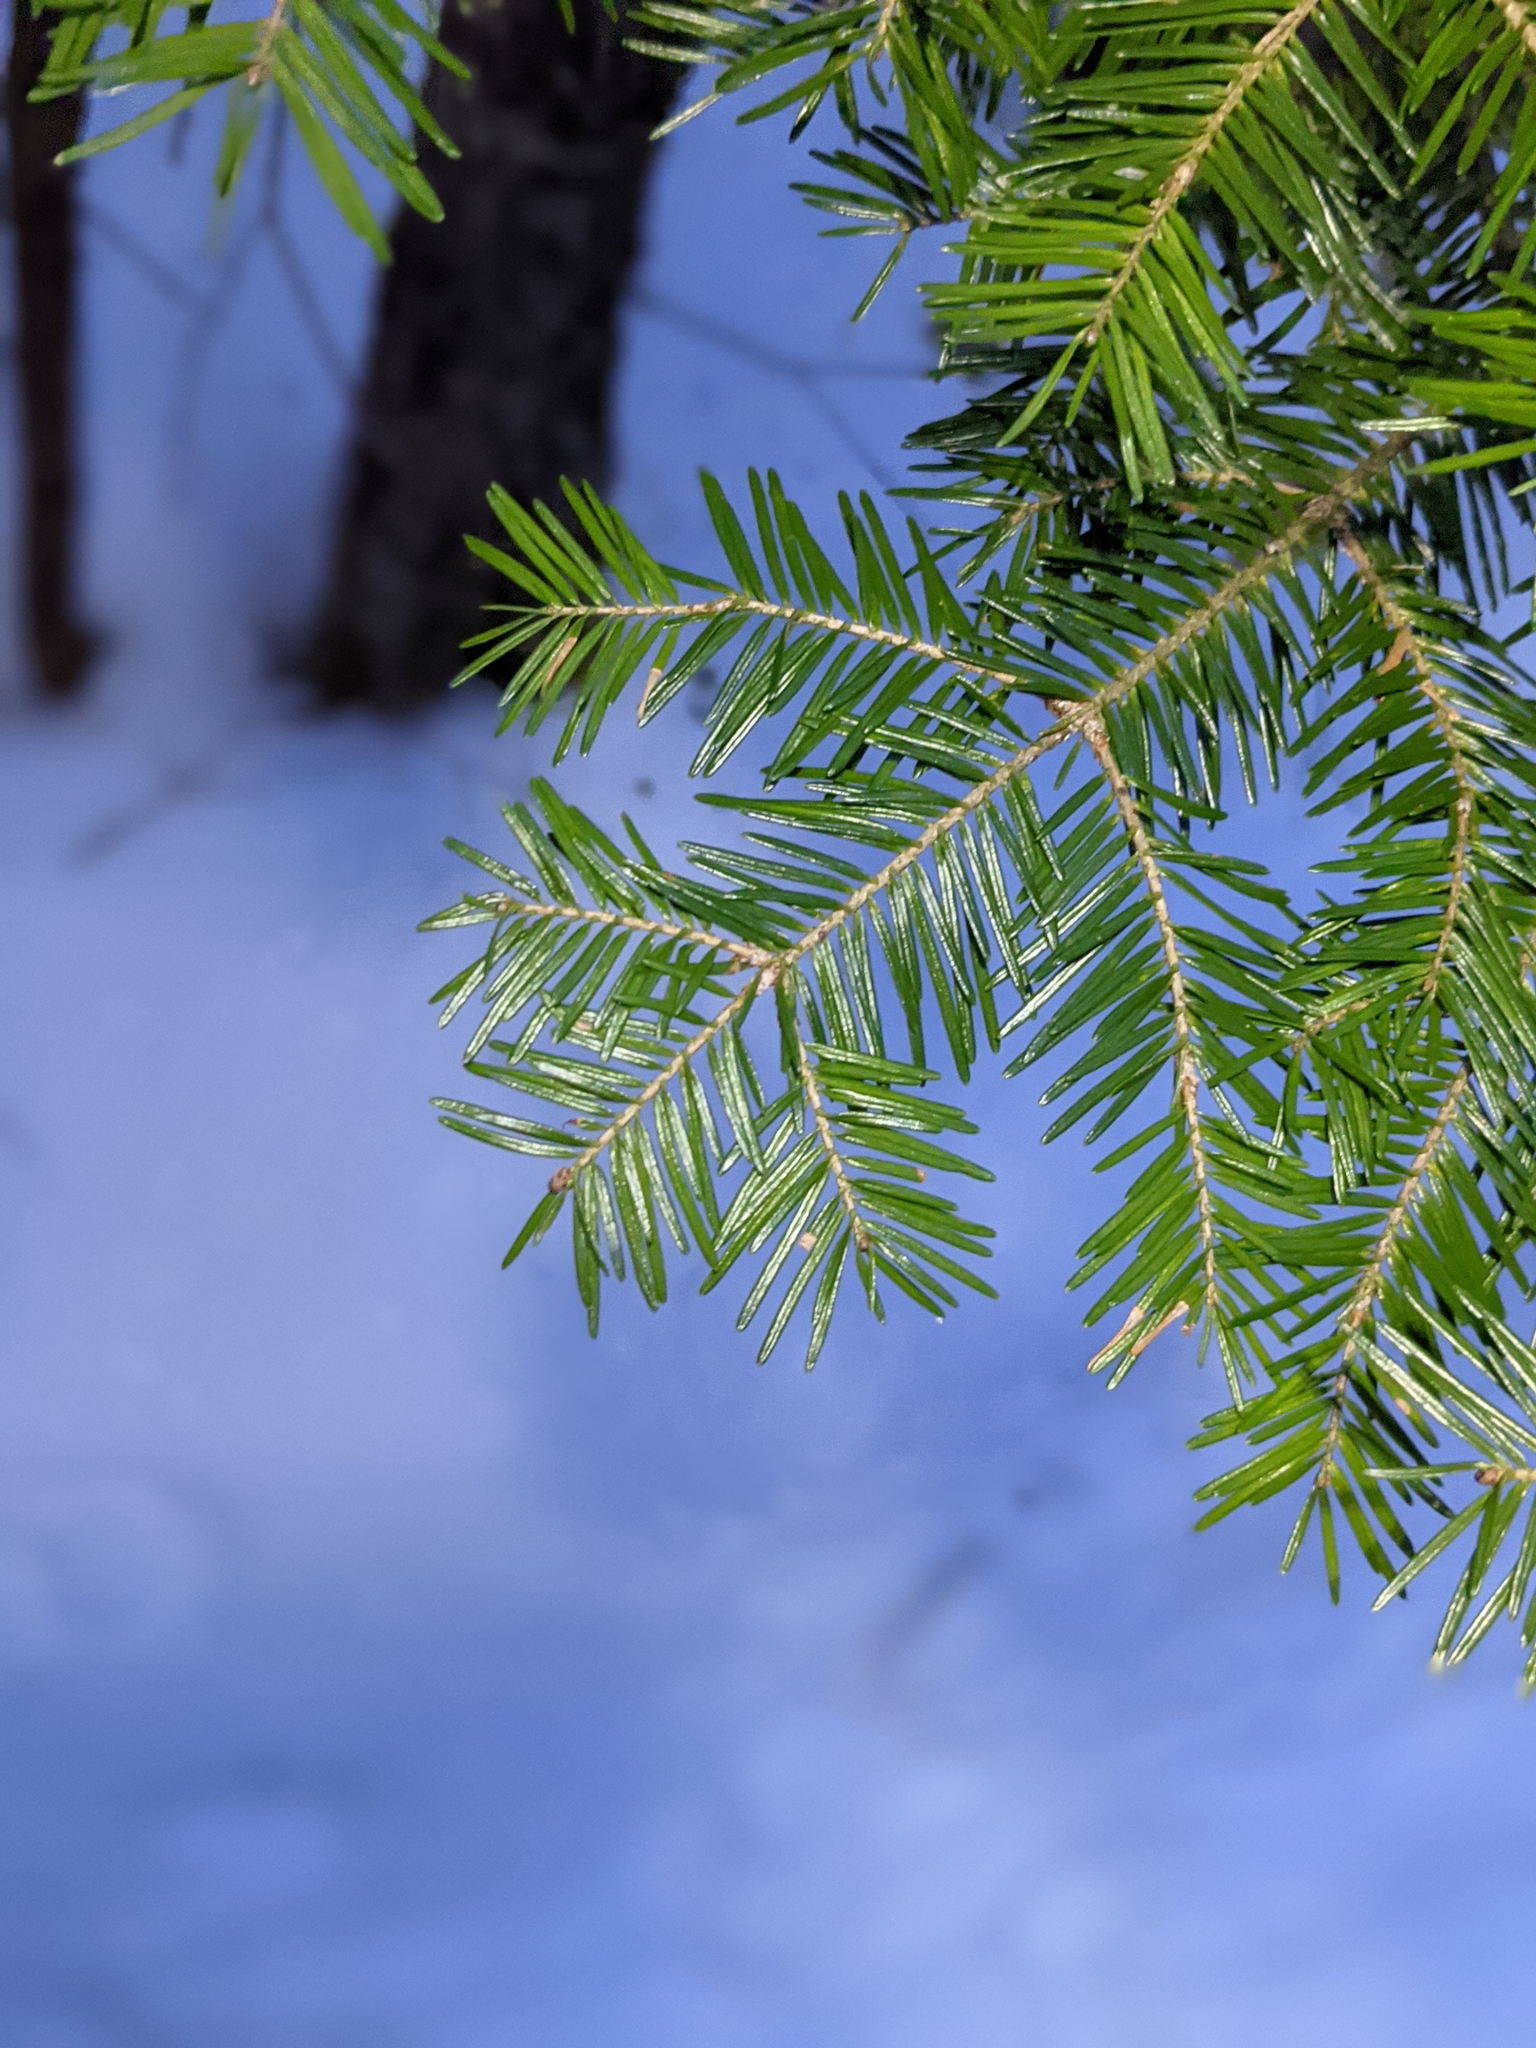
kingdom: Plantae
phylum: Tracheophyta
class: Pinopsida
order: Pinales
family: Pinaceae
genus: Abies
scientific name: Abies balsamea
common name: Balsam fir
